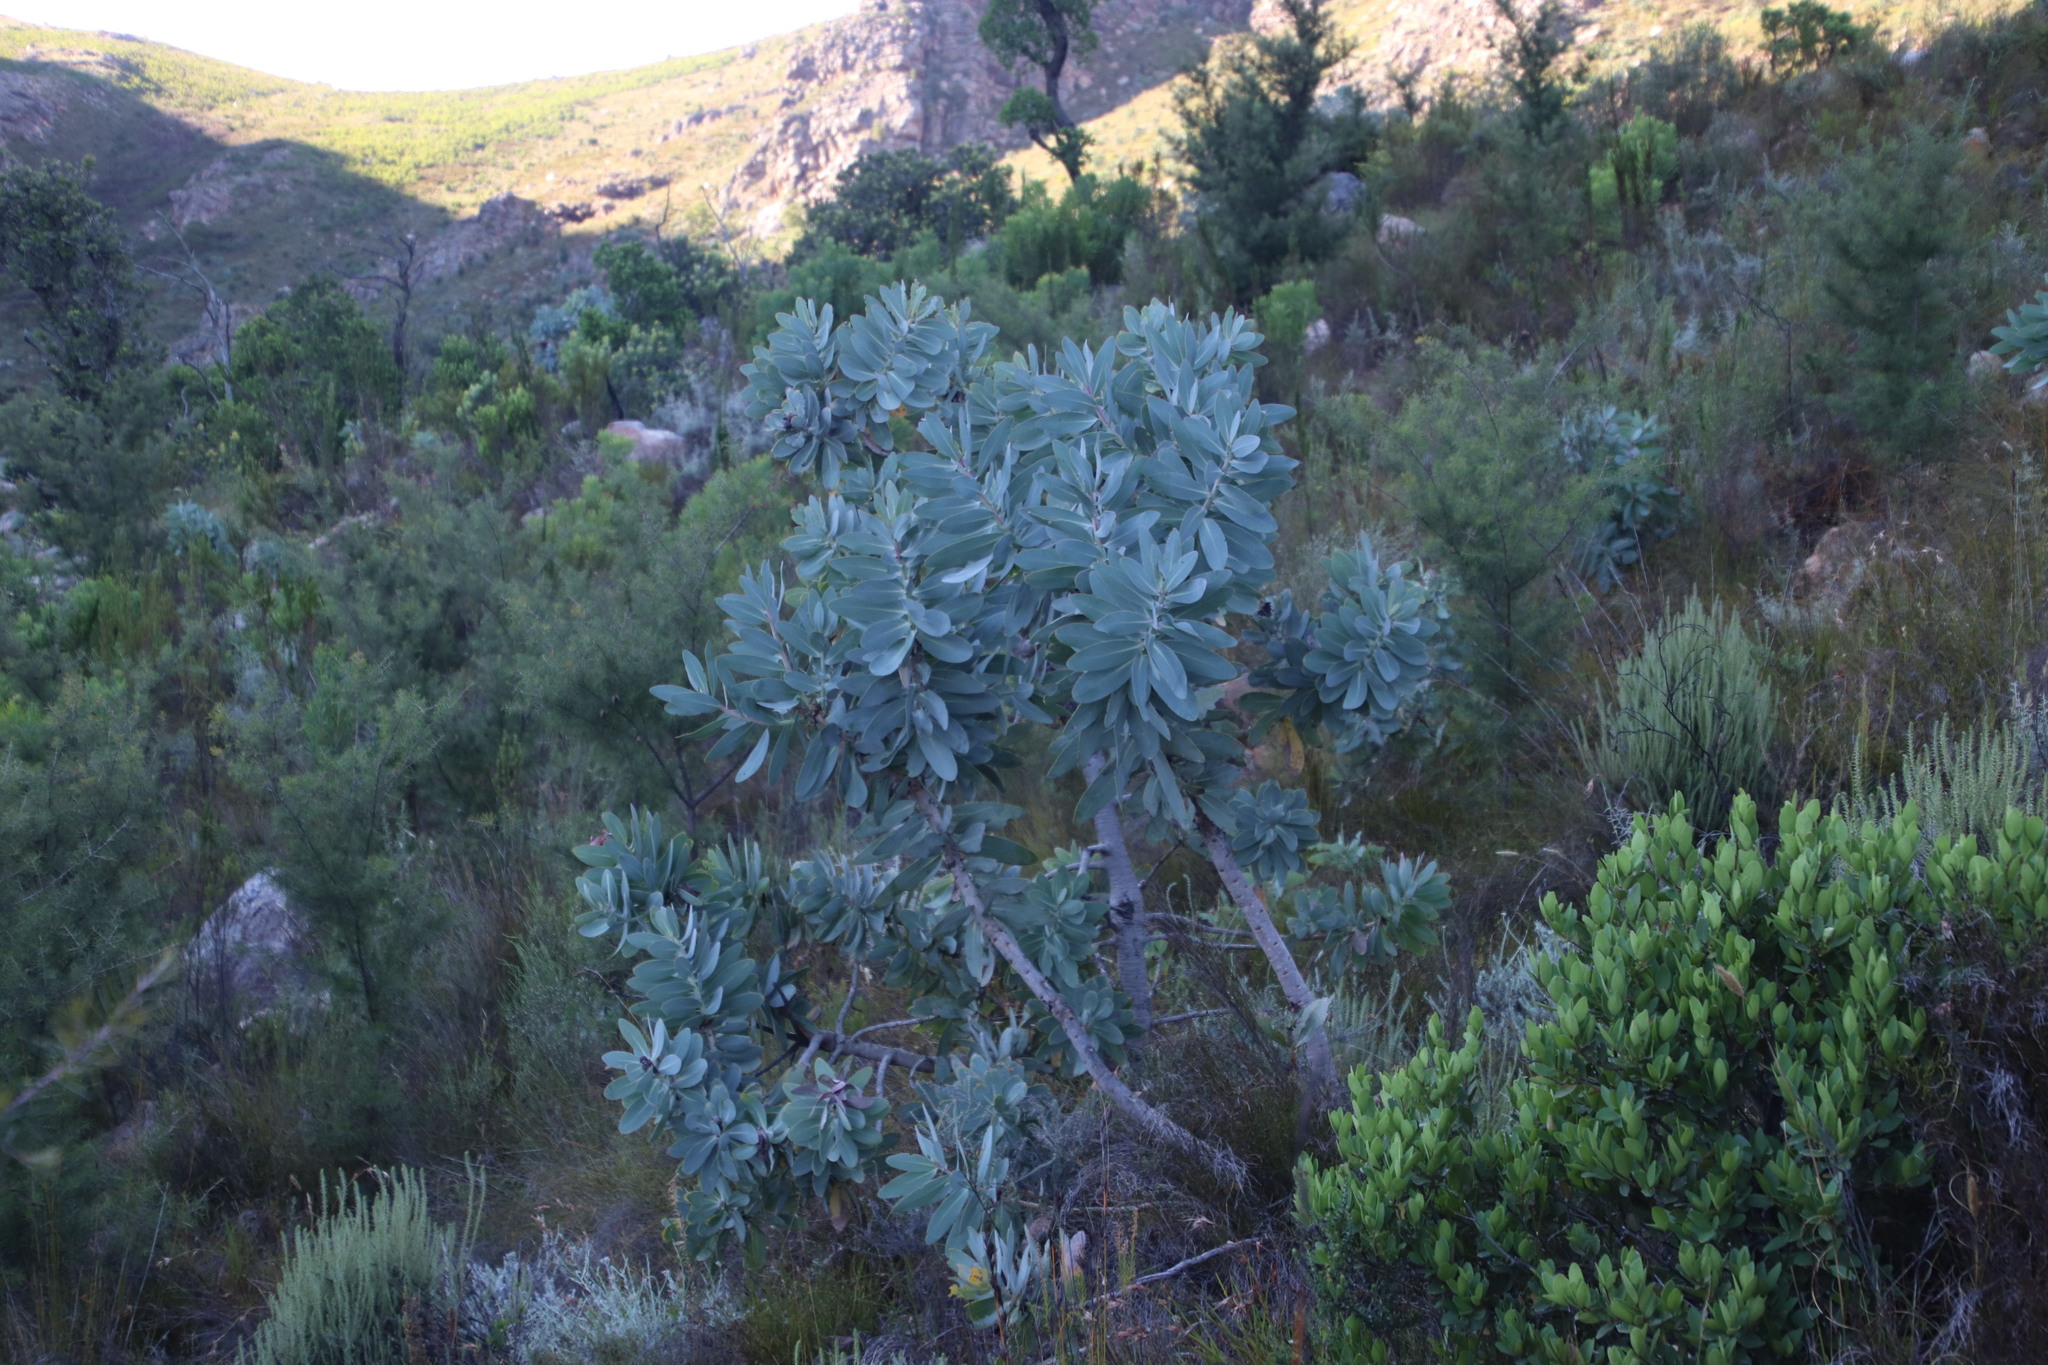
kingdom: Plantae
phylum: Tracheophyta
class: Magnoliopsida
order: Proteales
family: Proteaceae
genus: Protea
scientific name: Protea nitida
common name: Tree protea
